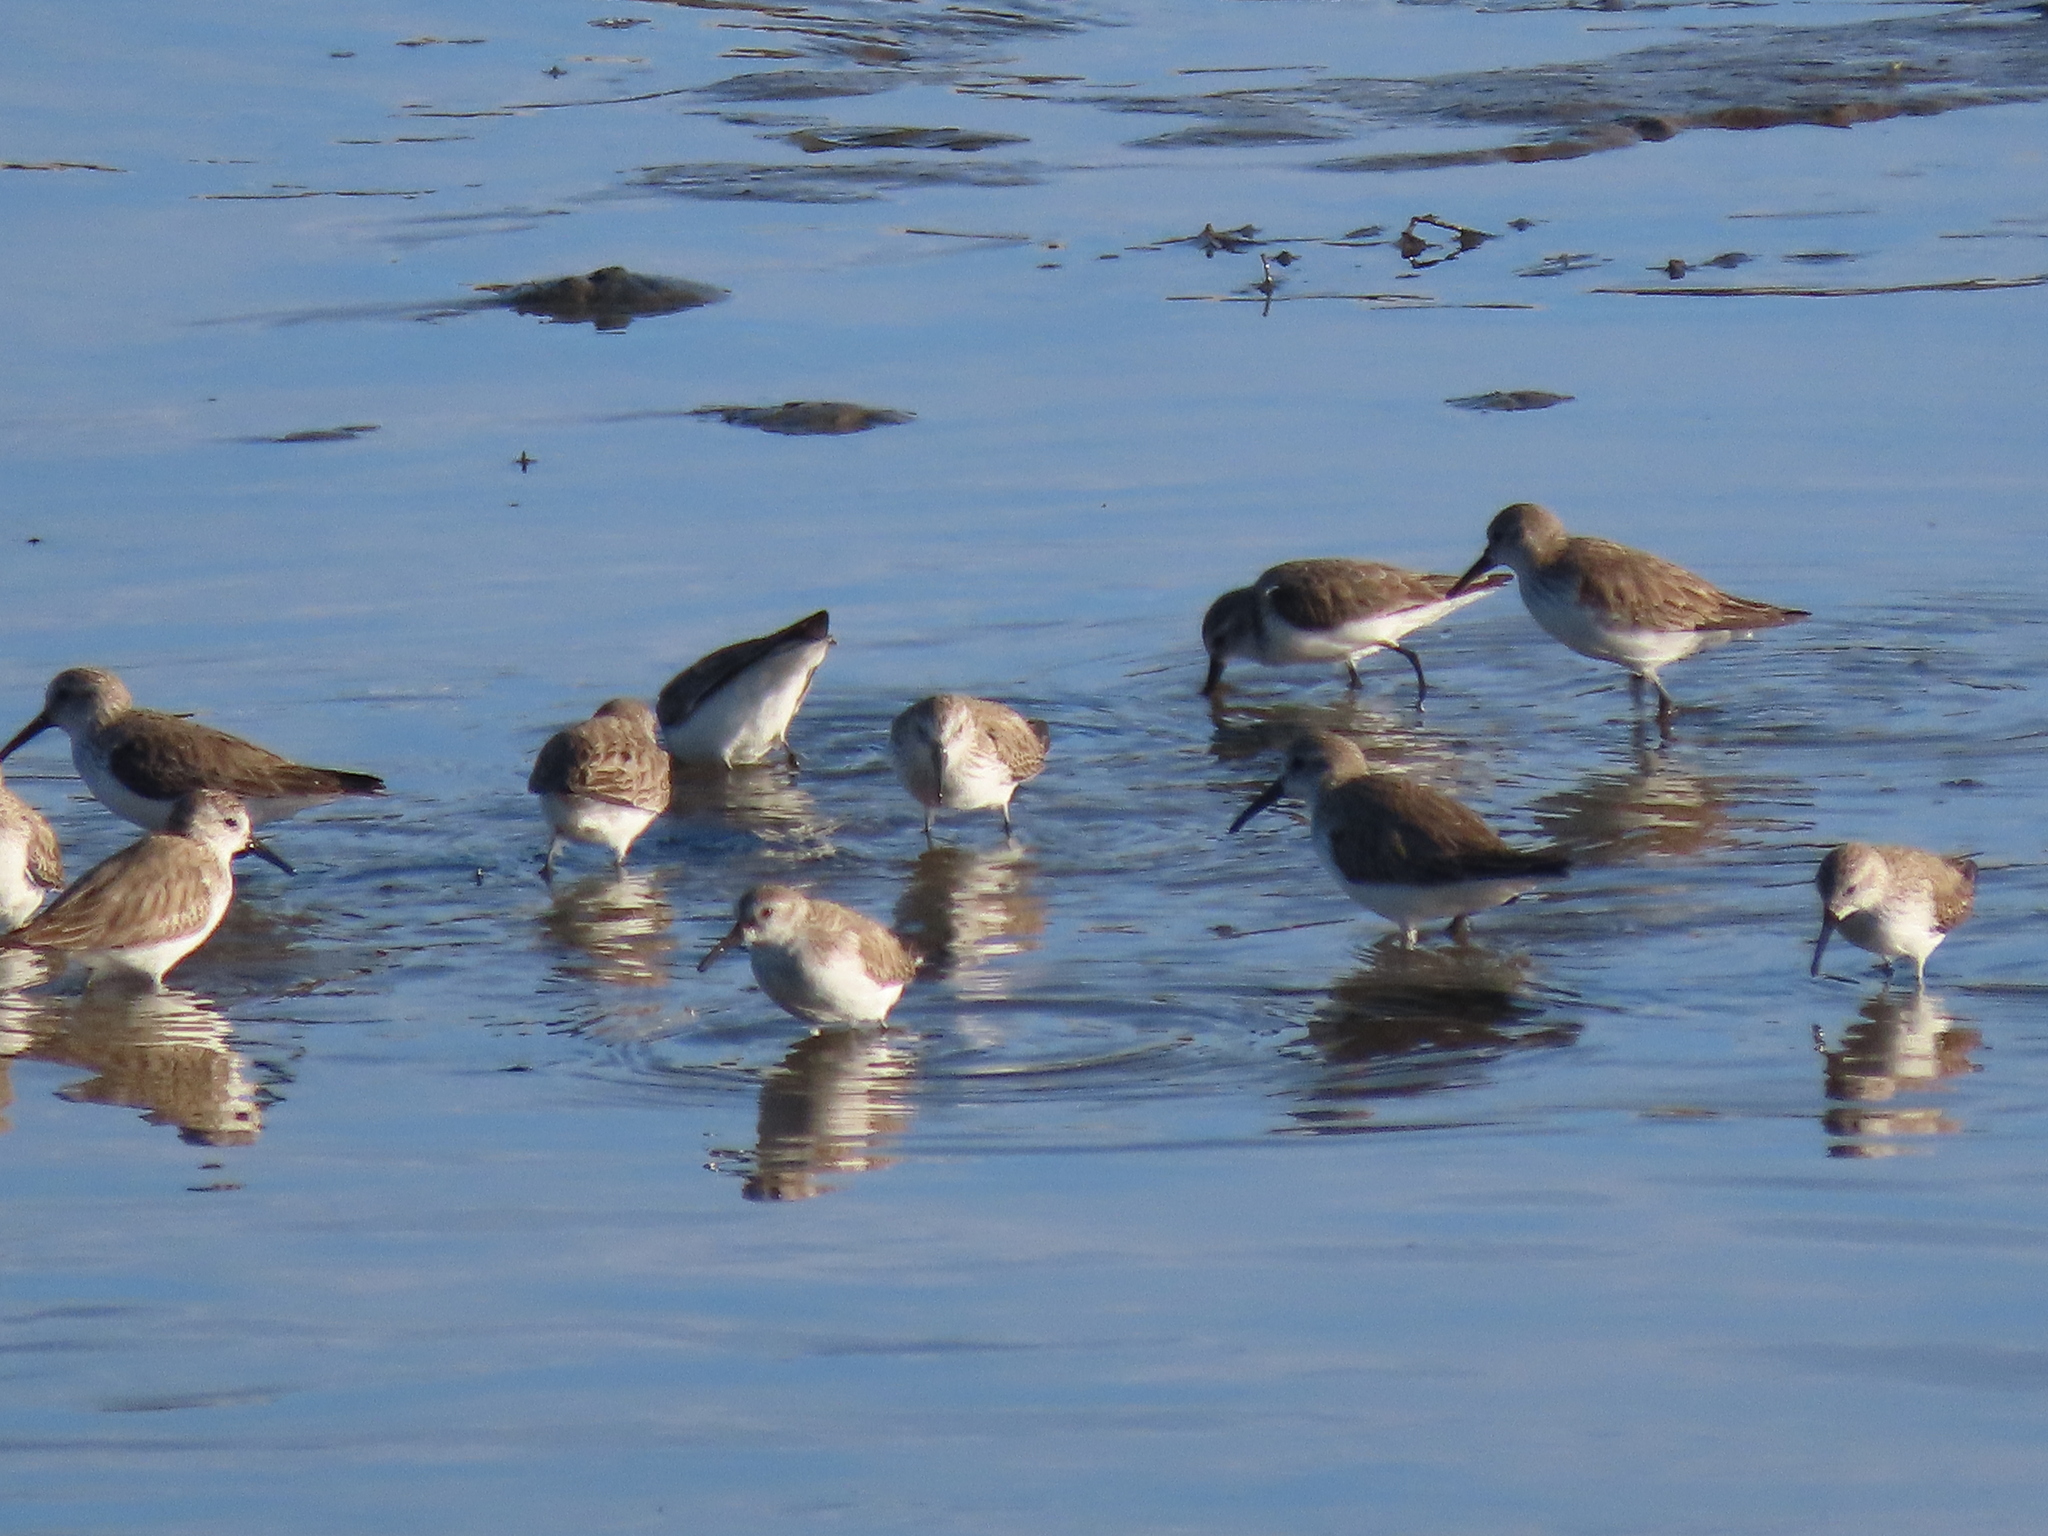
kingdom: Animalia
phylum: Chordata
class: Aves
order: Charadriiformes
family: Scolopacidae
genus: Calidris
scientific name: Calidris alpina
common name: Dunlin
